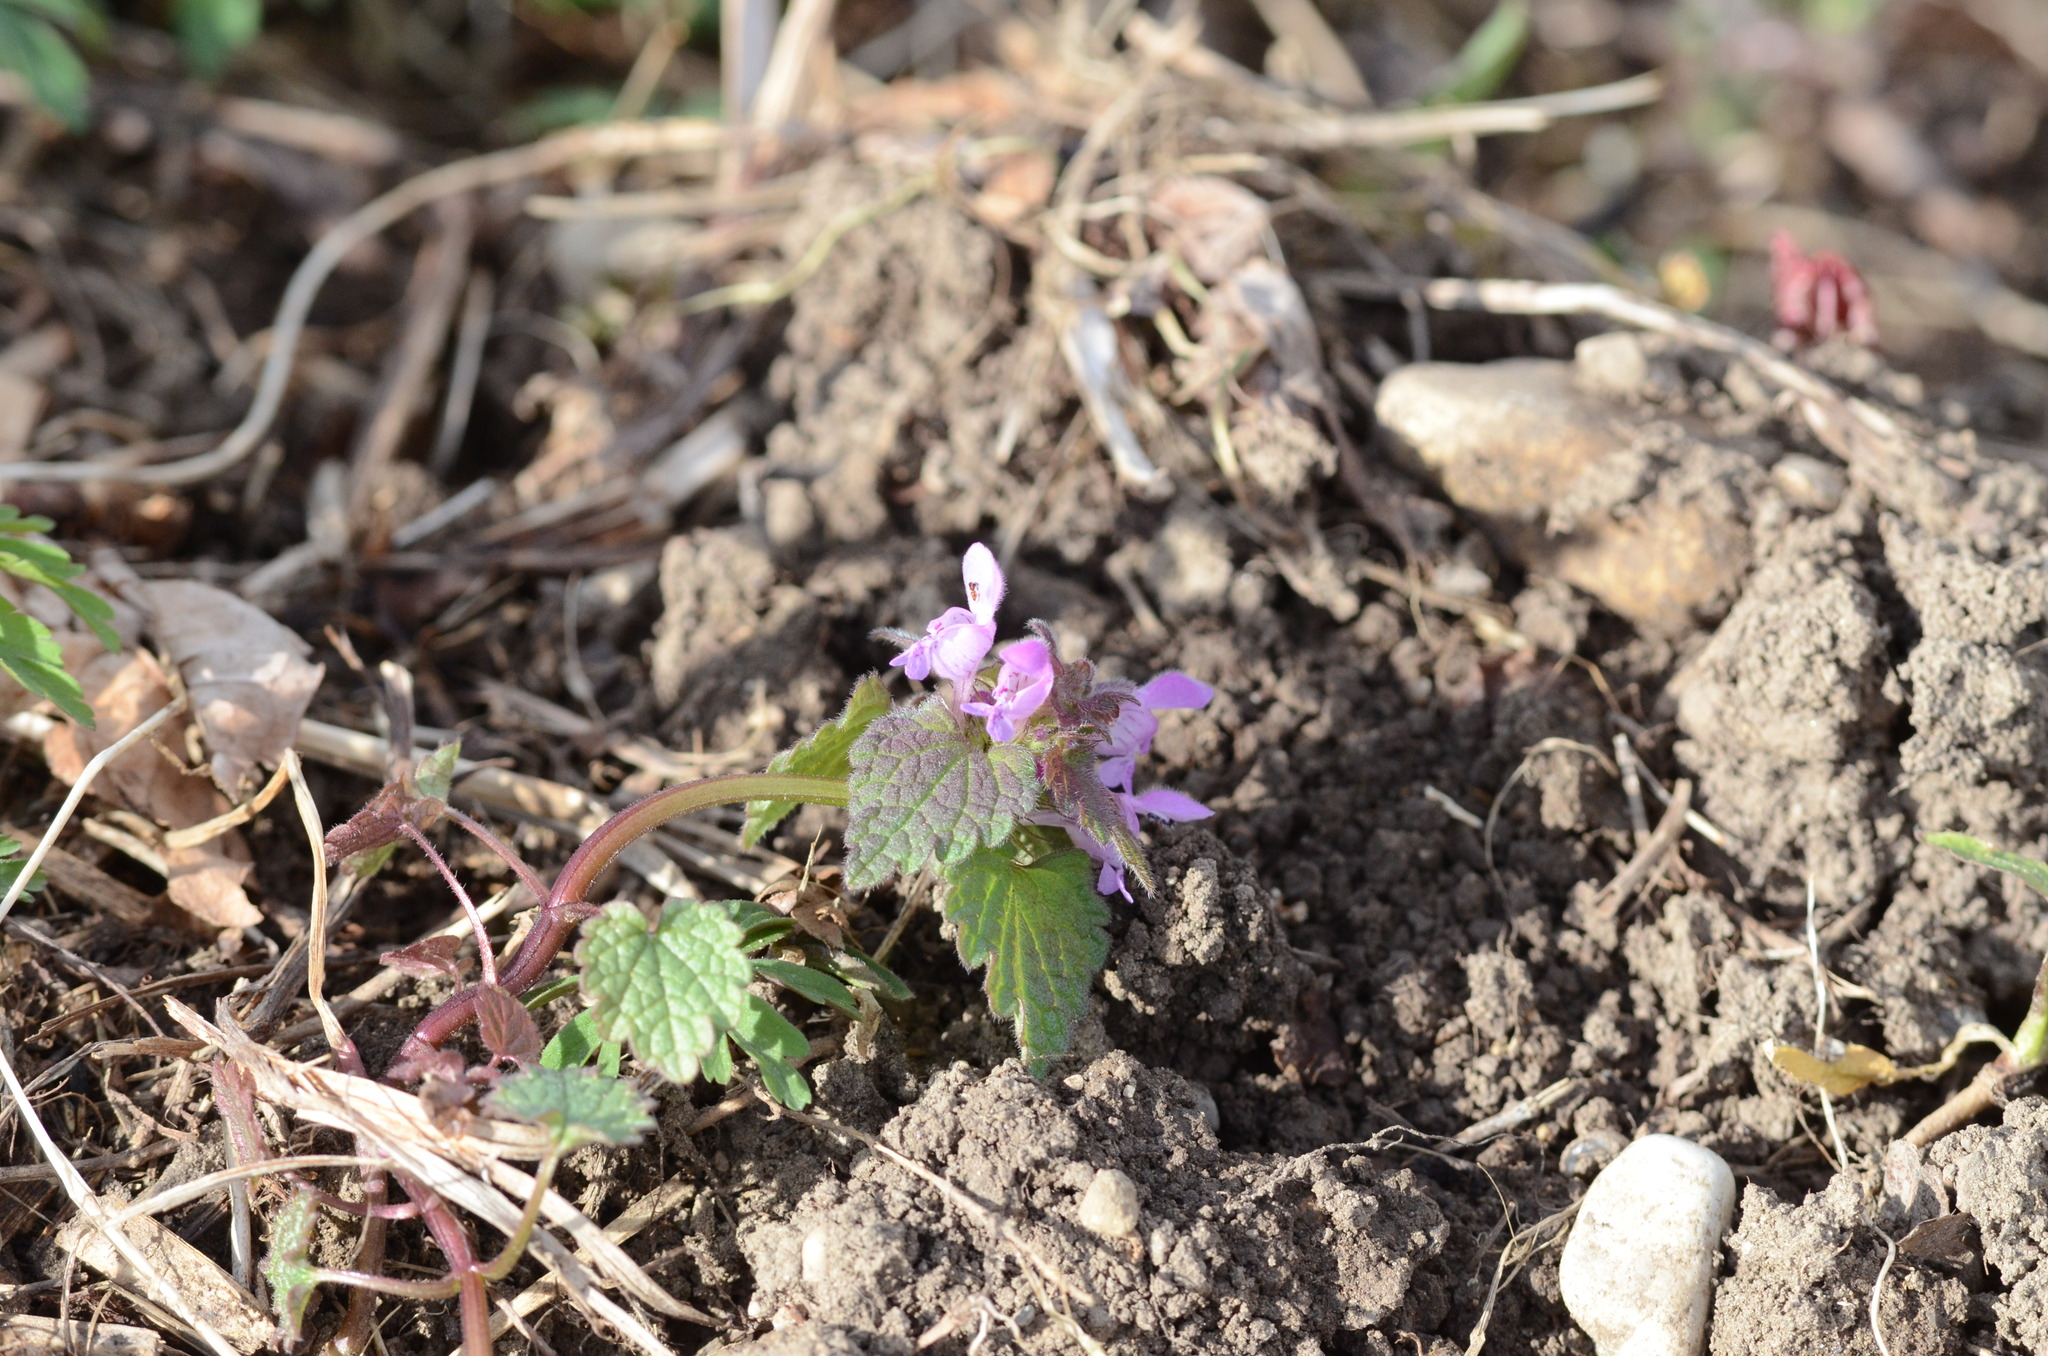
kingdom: Plantae
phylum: Tracheophyta
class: Magnoliopsida
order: Lamiales
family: Lamiaceae
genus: Lamium
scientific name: Lamium purpureum
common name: Red dead-nettle
